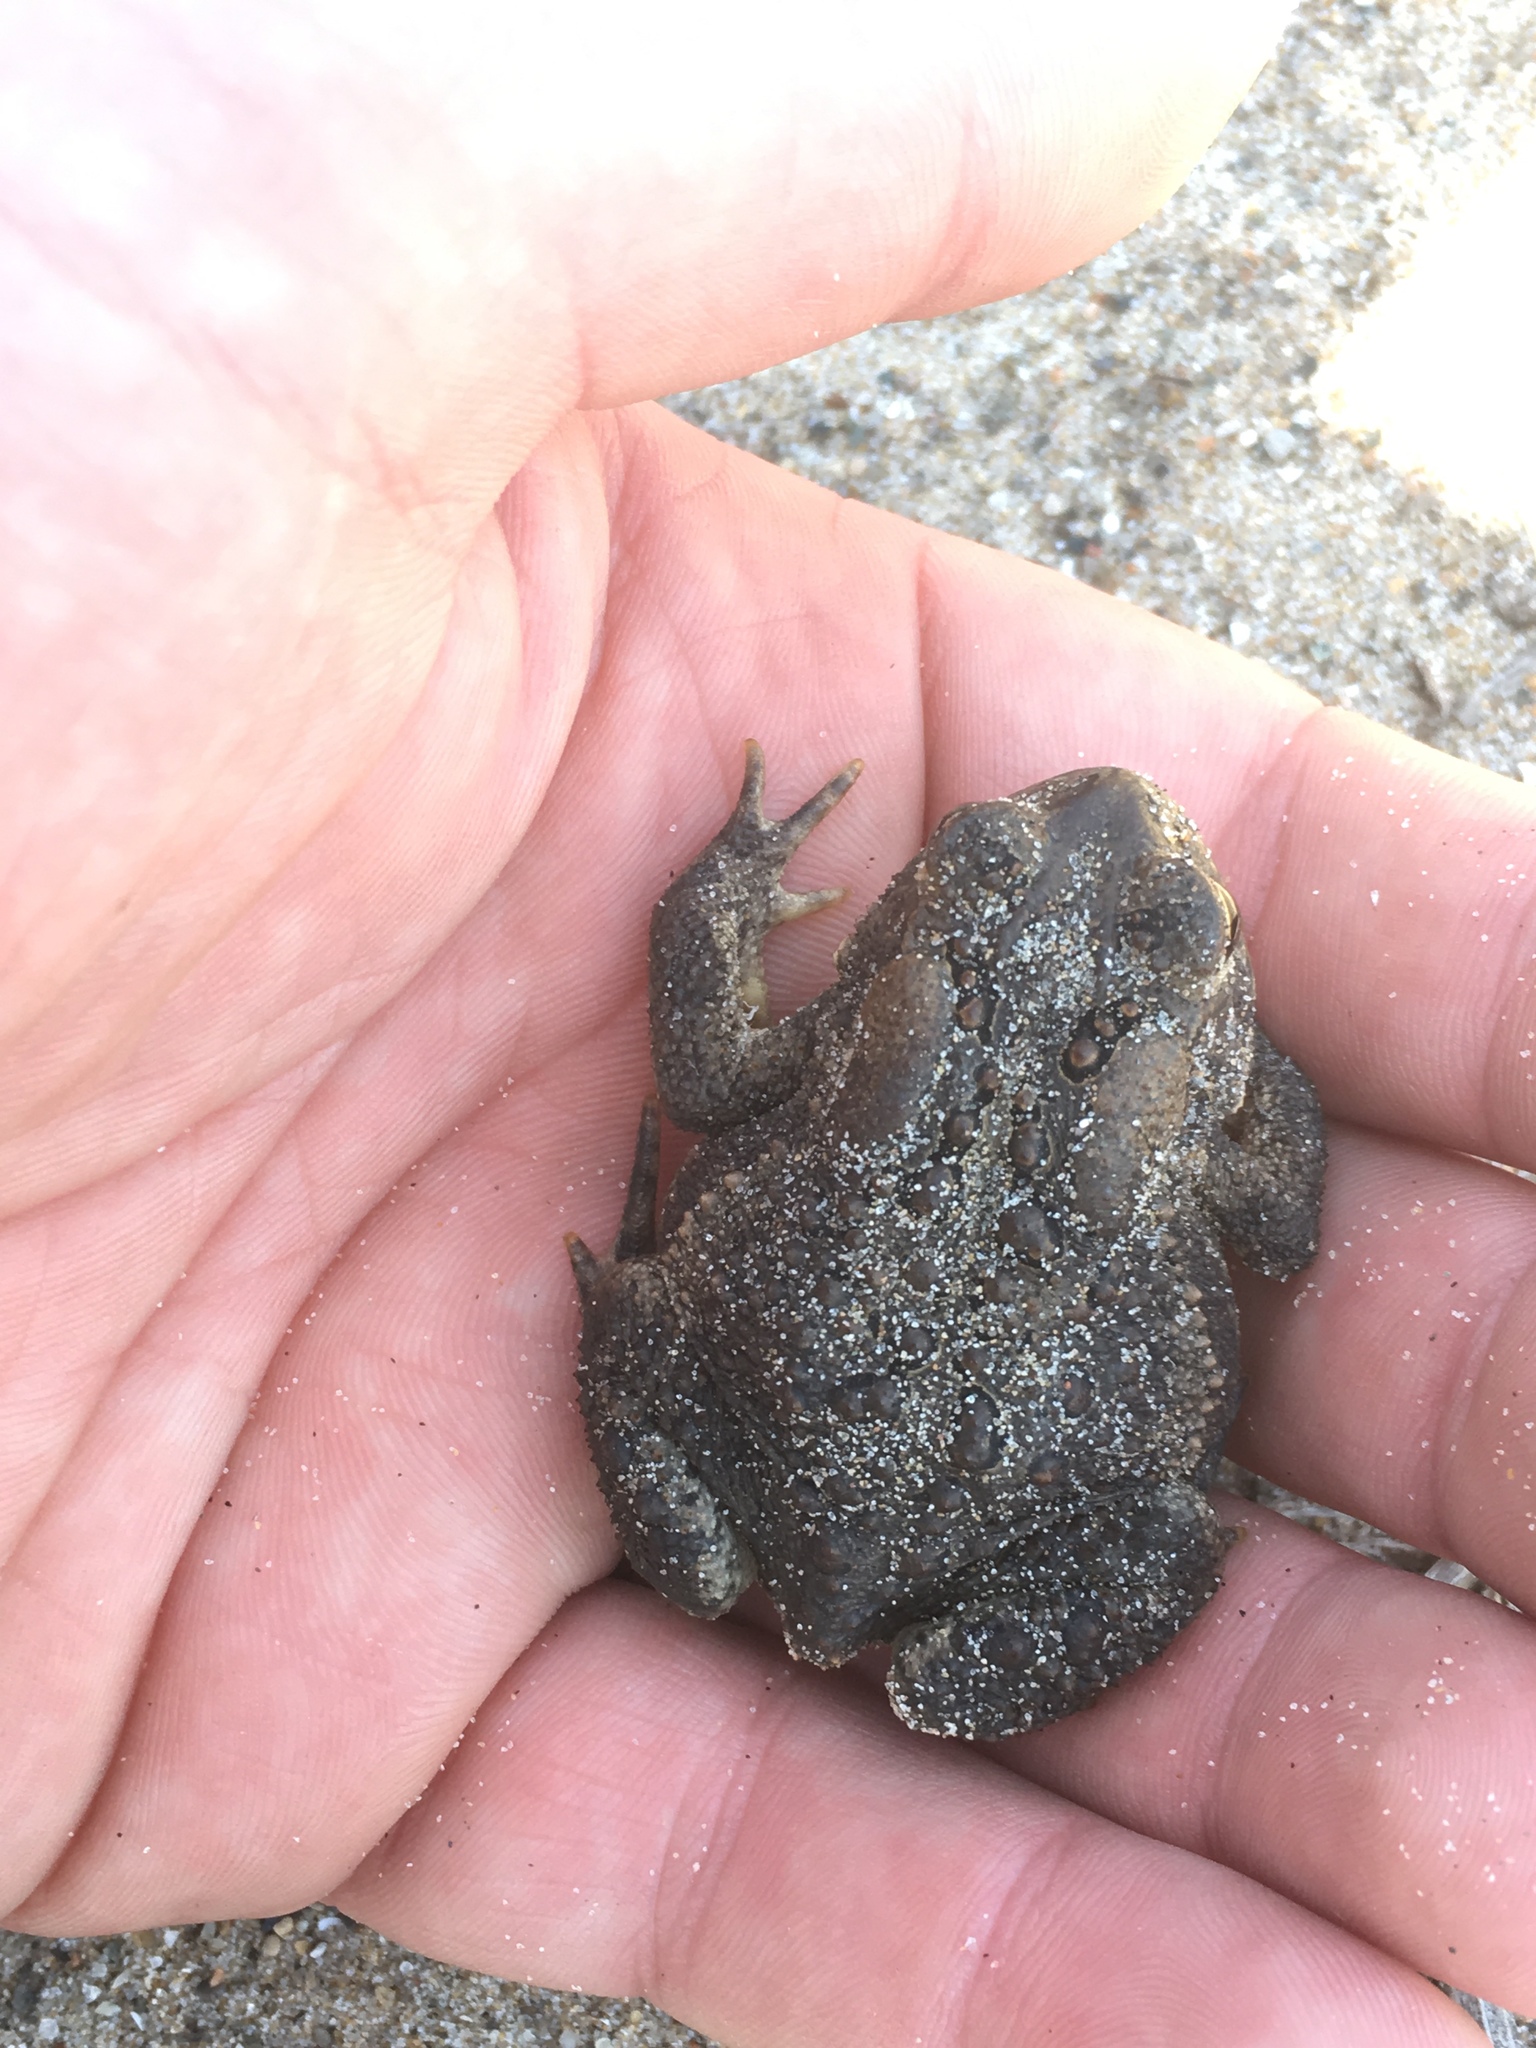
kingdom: Animalia
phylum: Chordata
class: Amphibia
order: Anura
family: Bufonidae
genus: Anaxyrus
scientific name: Anaxyrus americanus
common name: American toad
